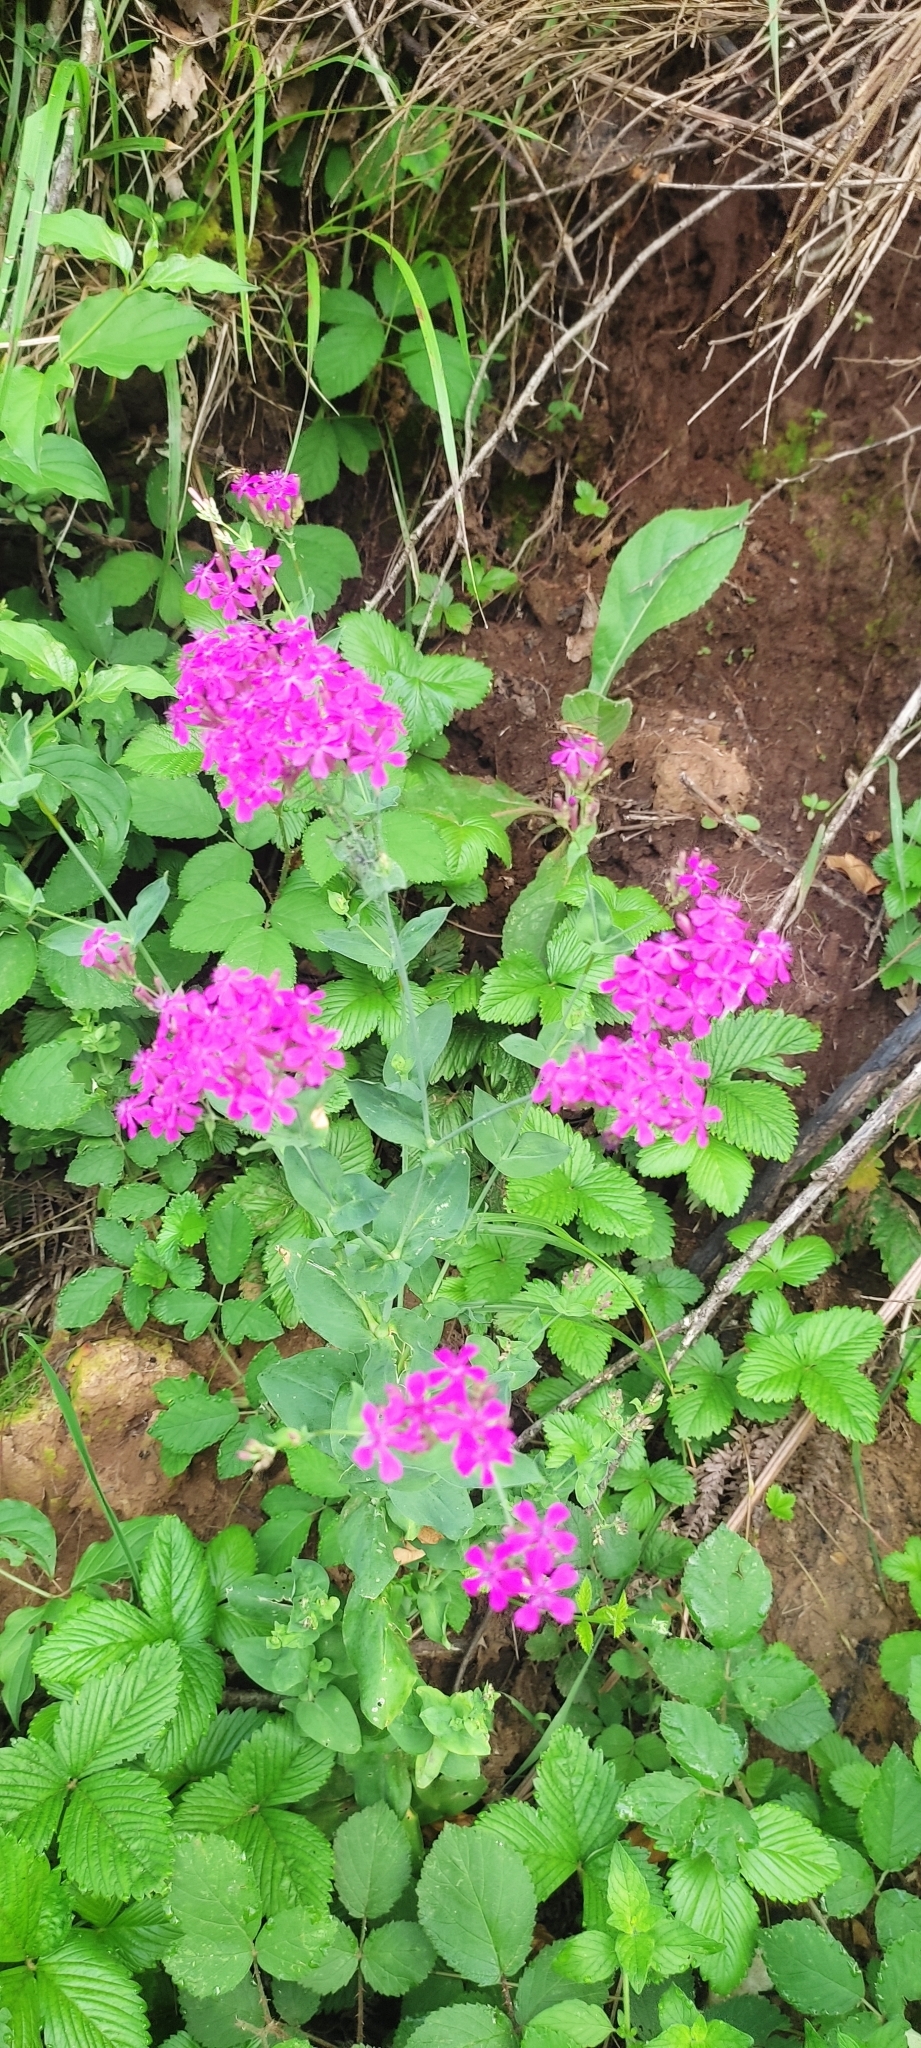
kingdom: Plantae
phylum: Tracheophyta
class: Magnoliopsida
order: Caryophyllales
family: Caryophyllaceae
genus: Atocion
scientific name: Atocion armeria
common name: Sweet william catchfly
